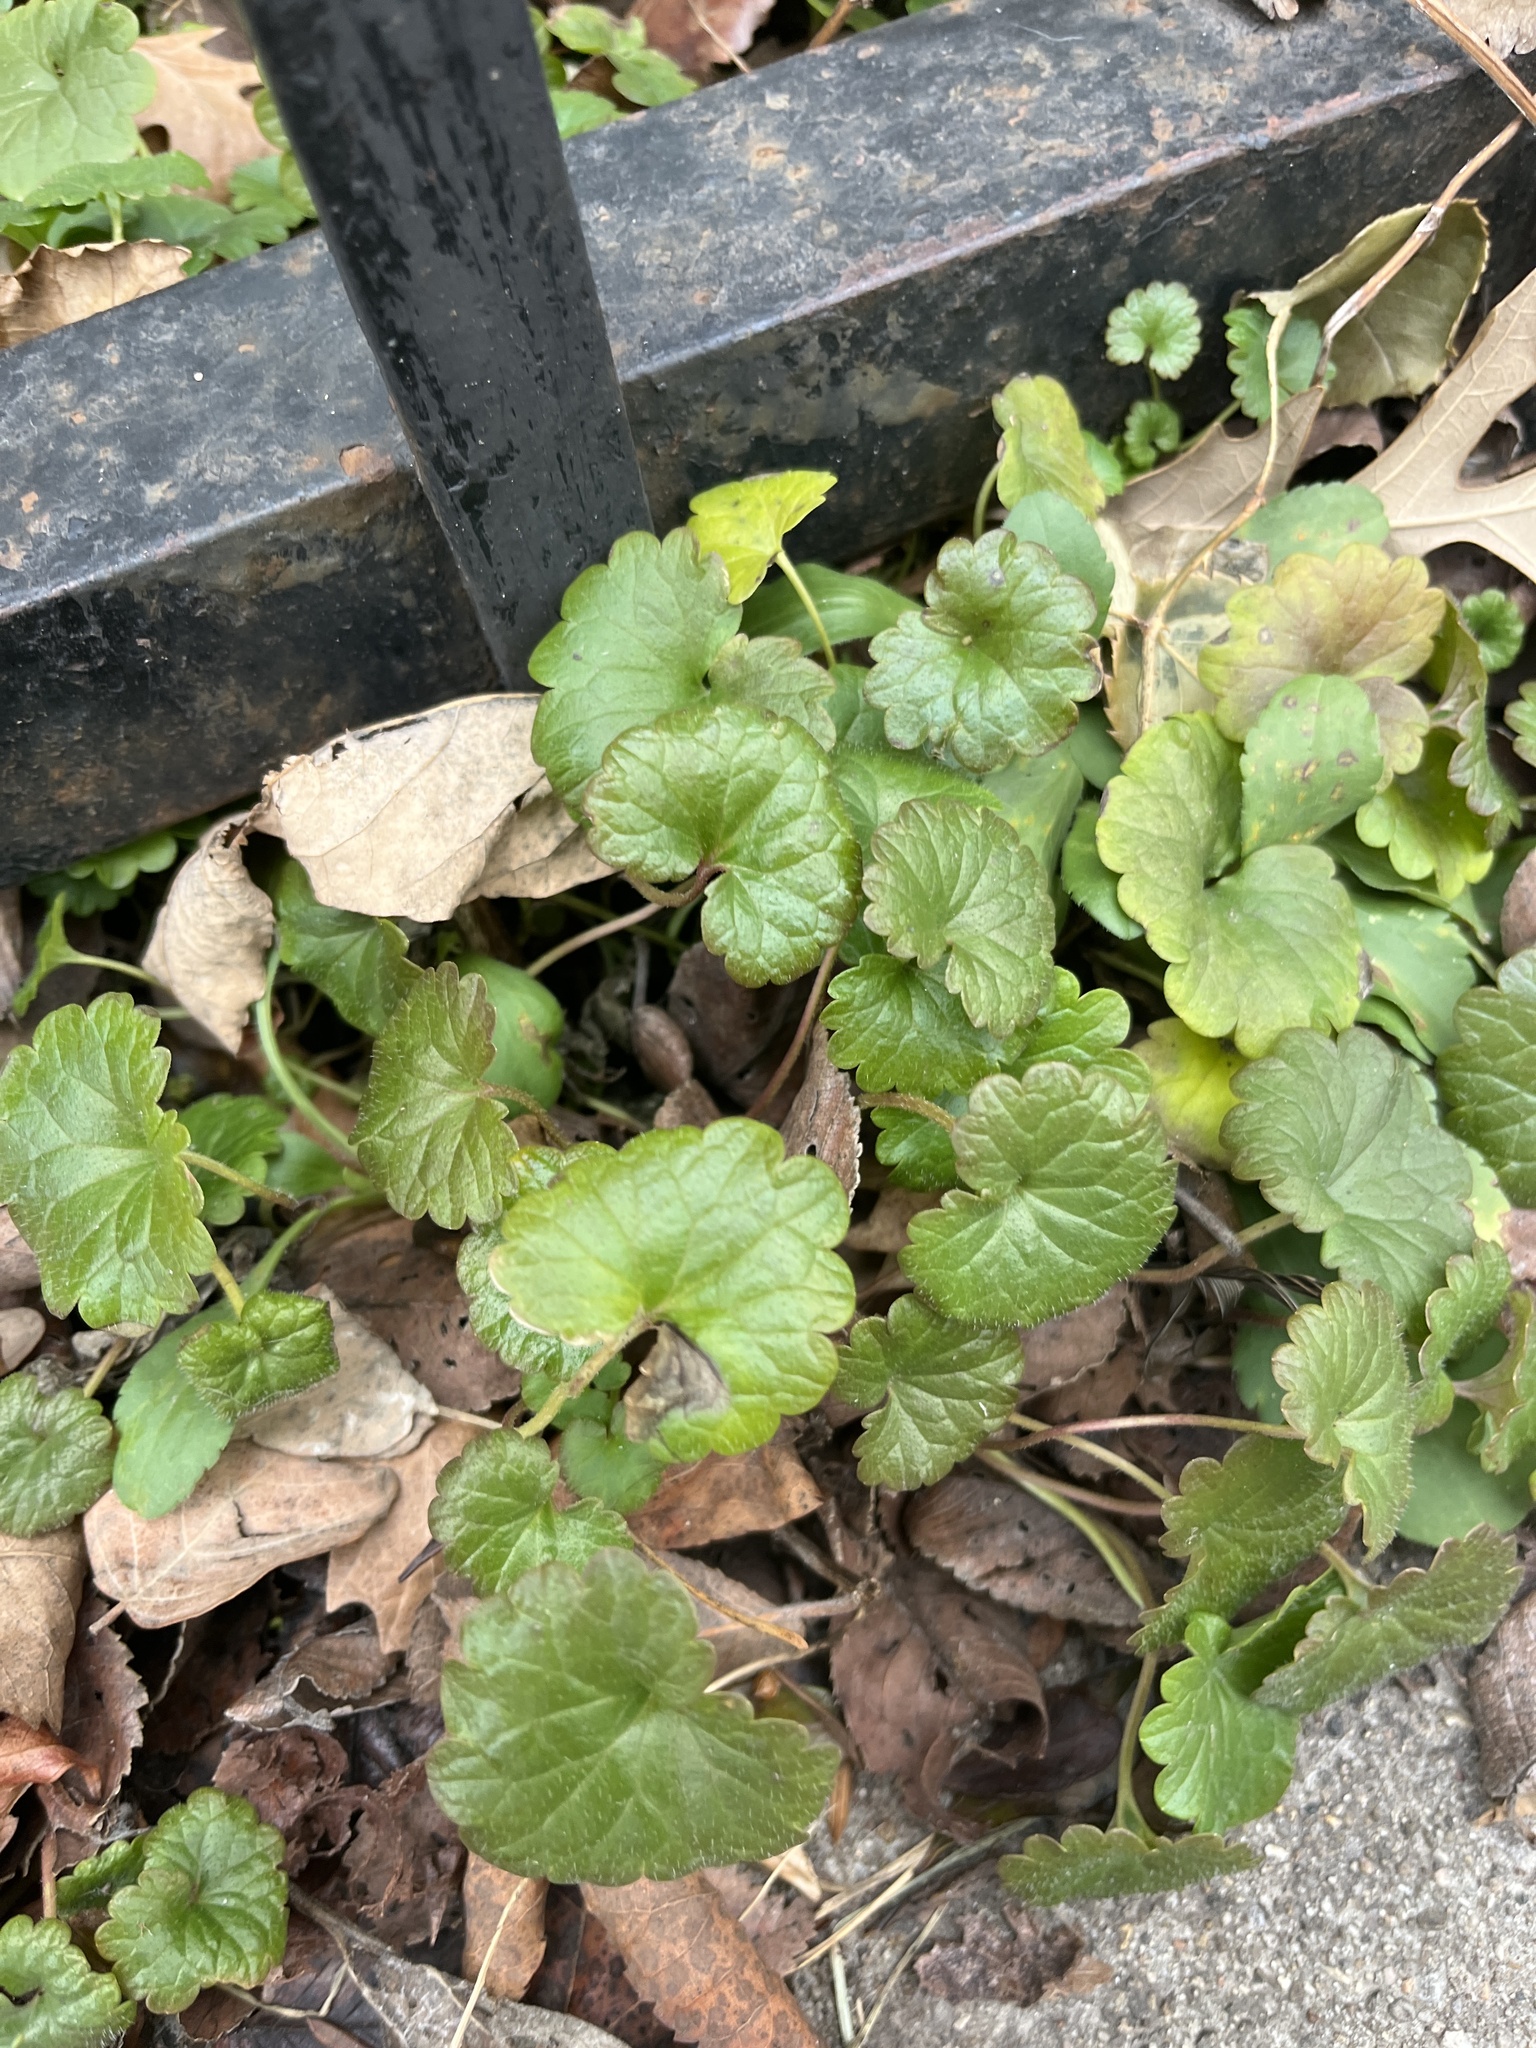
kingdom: Plantae
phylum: Tracheophyta
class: Magnoliopsida
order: Lamiales
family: Lamiaceae
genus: Glechoma
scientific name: Glechoma hederacea
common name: Ground ivy
